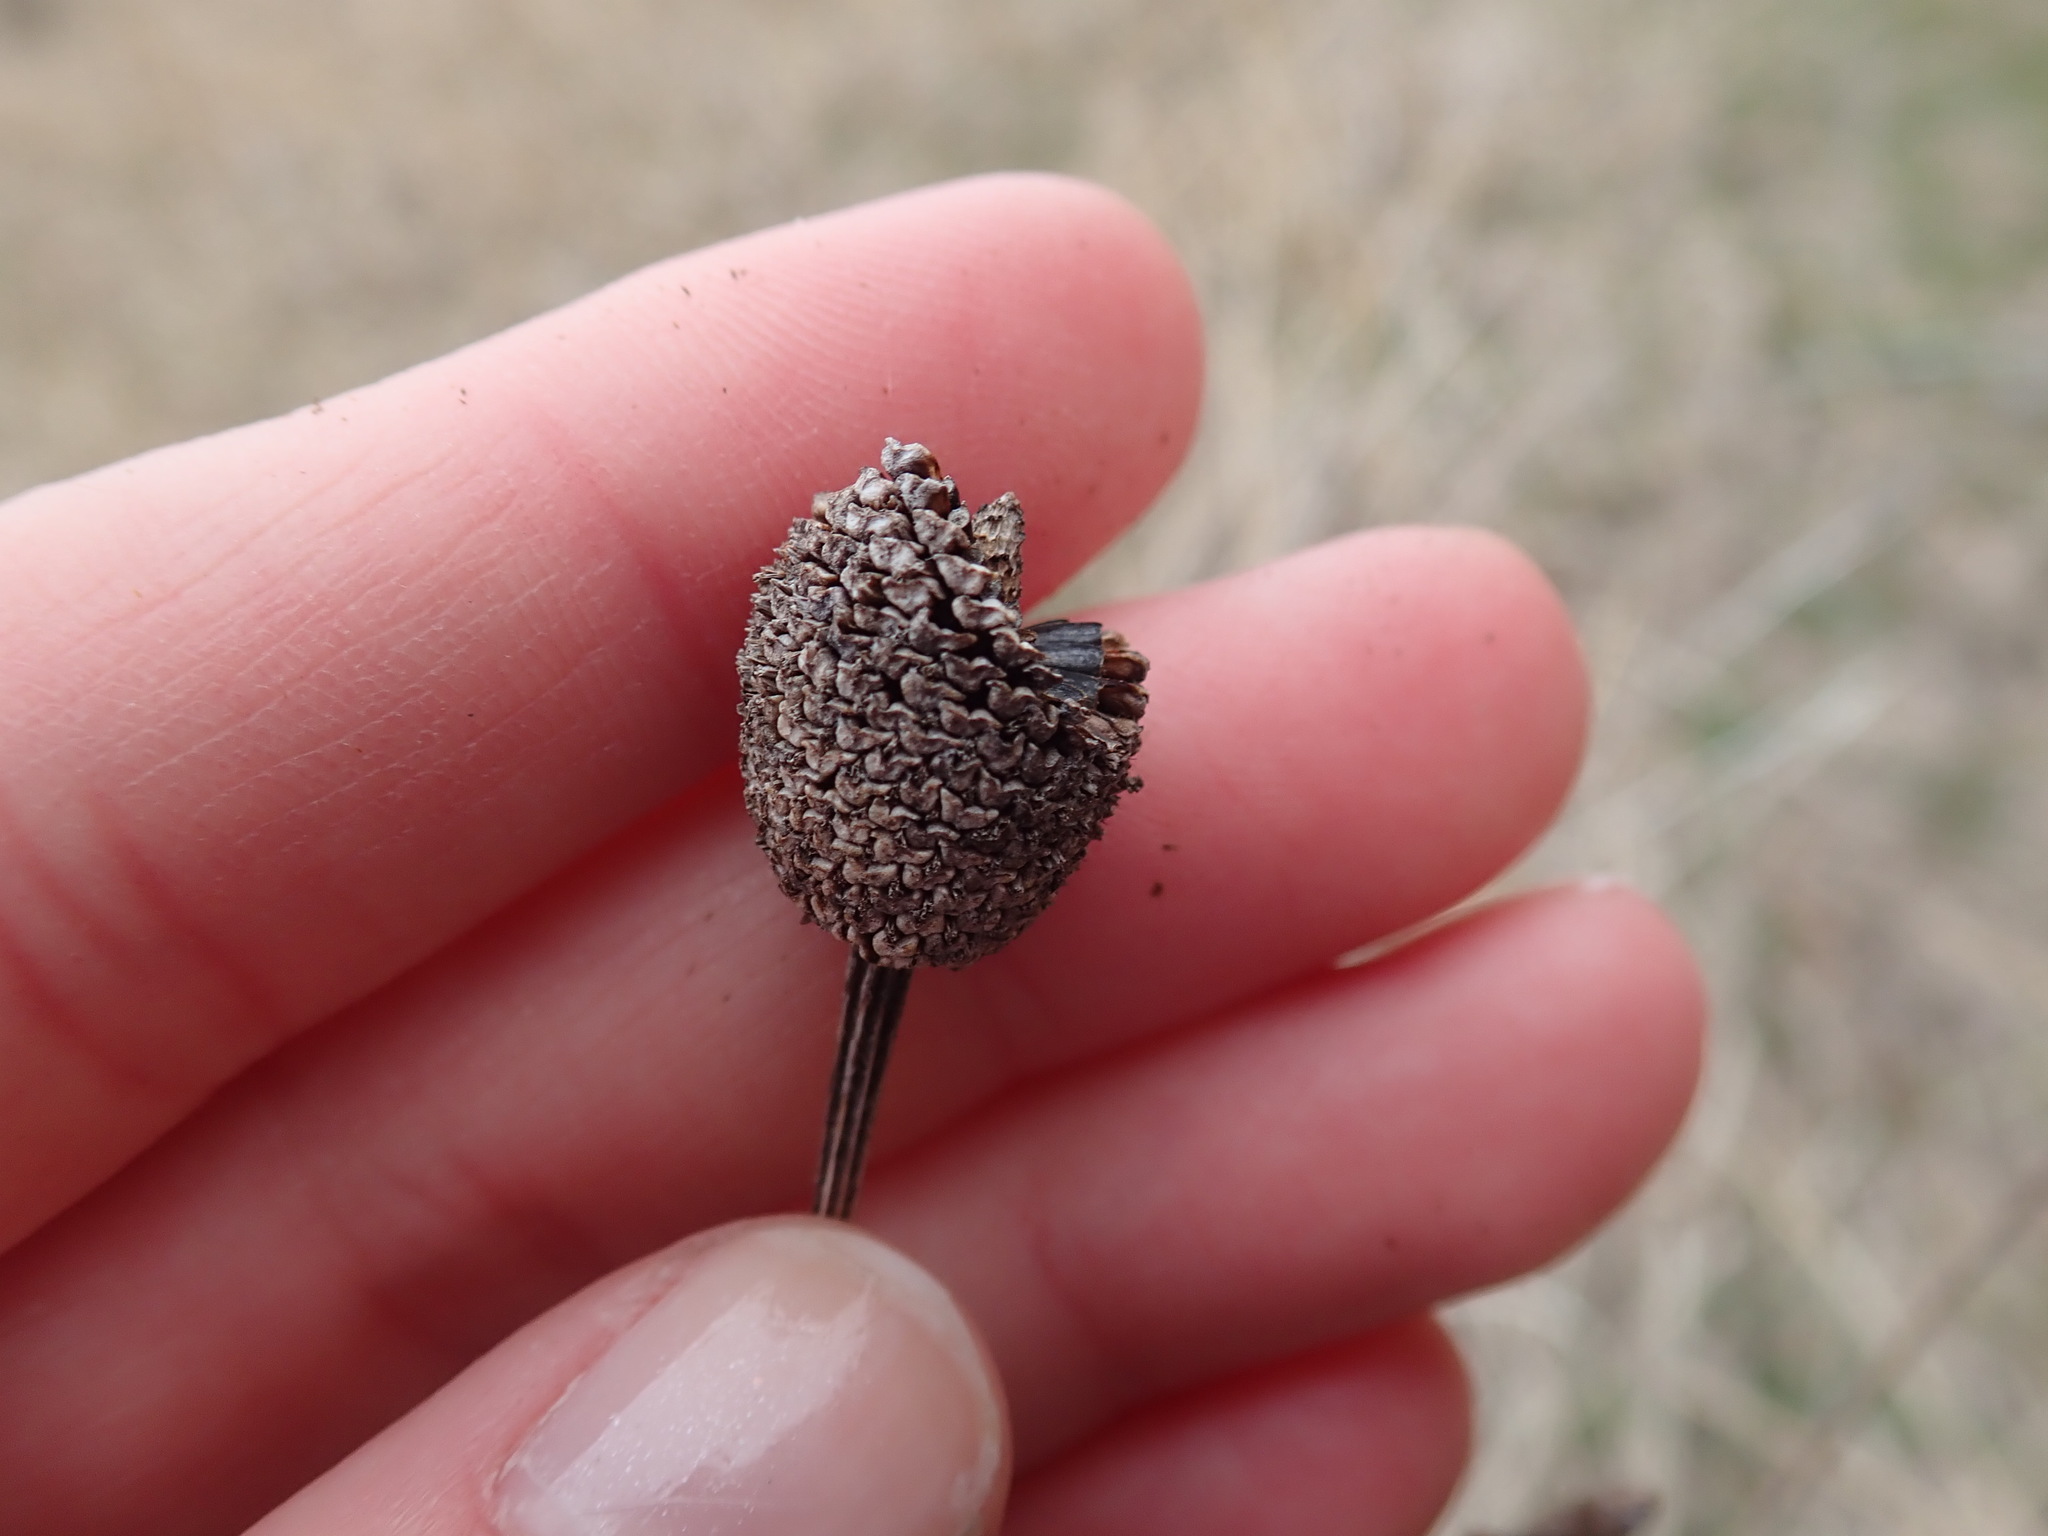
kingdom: Plantae
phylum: Tracheophyta
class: Magnoliopsida
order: Asterales
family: Asteraceae
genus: Ratibida
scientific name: Ratibida pinnata
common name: Drooping prairie-coneflower
